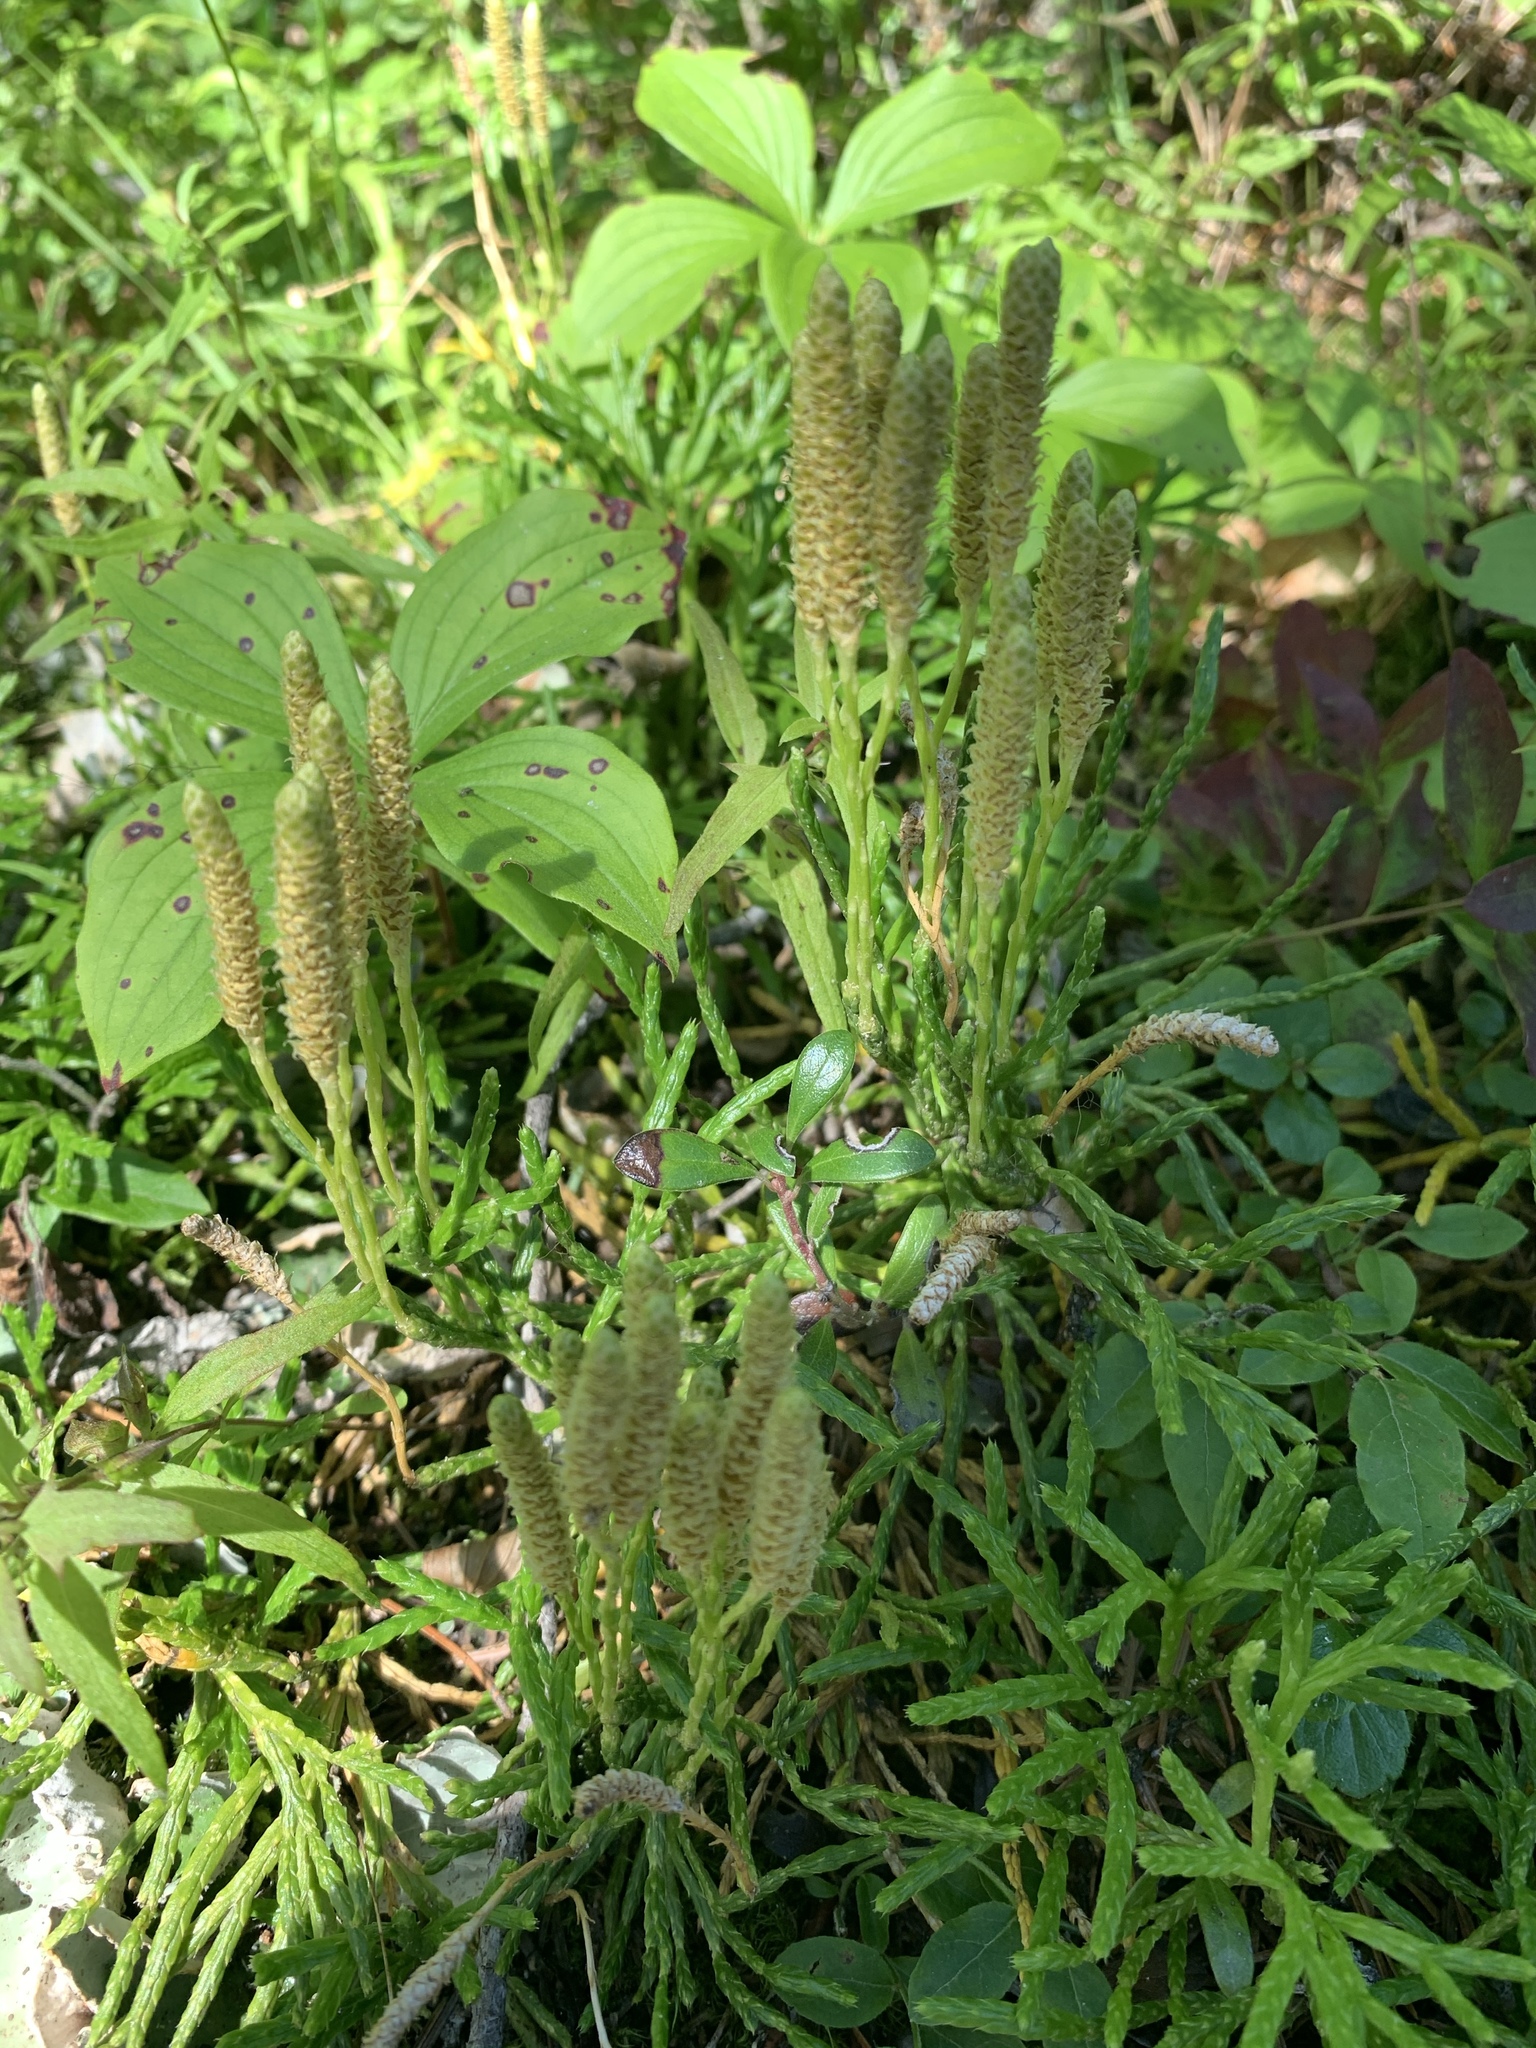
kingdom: Plantae
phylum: Tracheophyta
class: Lycopodiopsida
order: Lycopodiales
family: Lycopodiaceae
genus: Diphasiastrum
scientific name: Diphasiastrum complanatum
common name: Northern running-pine
